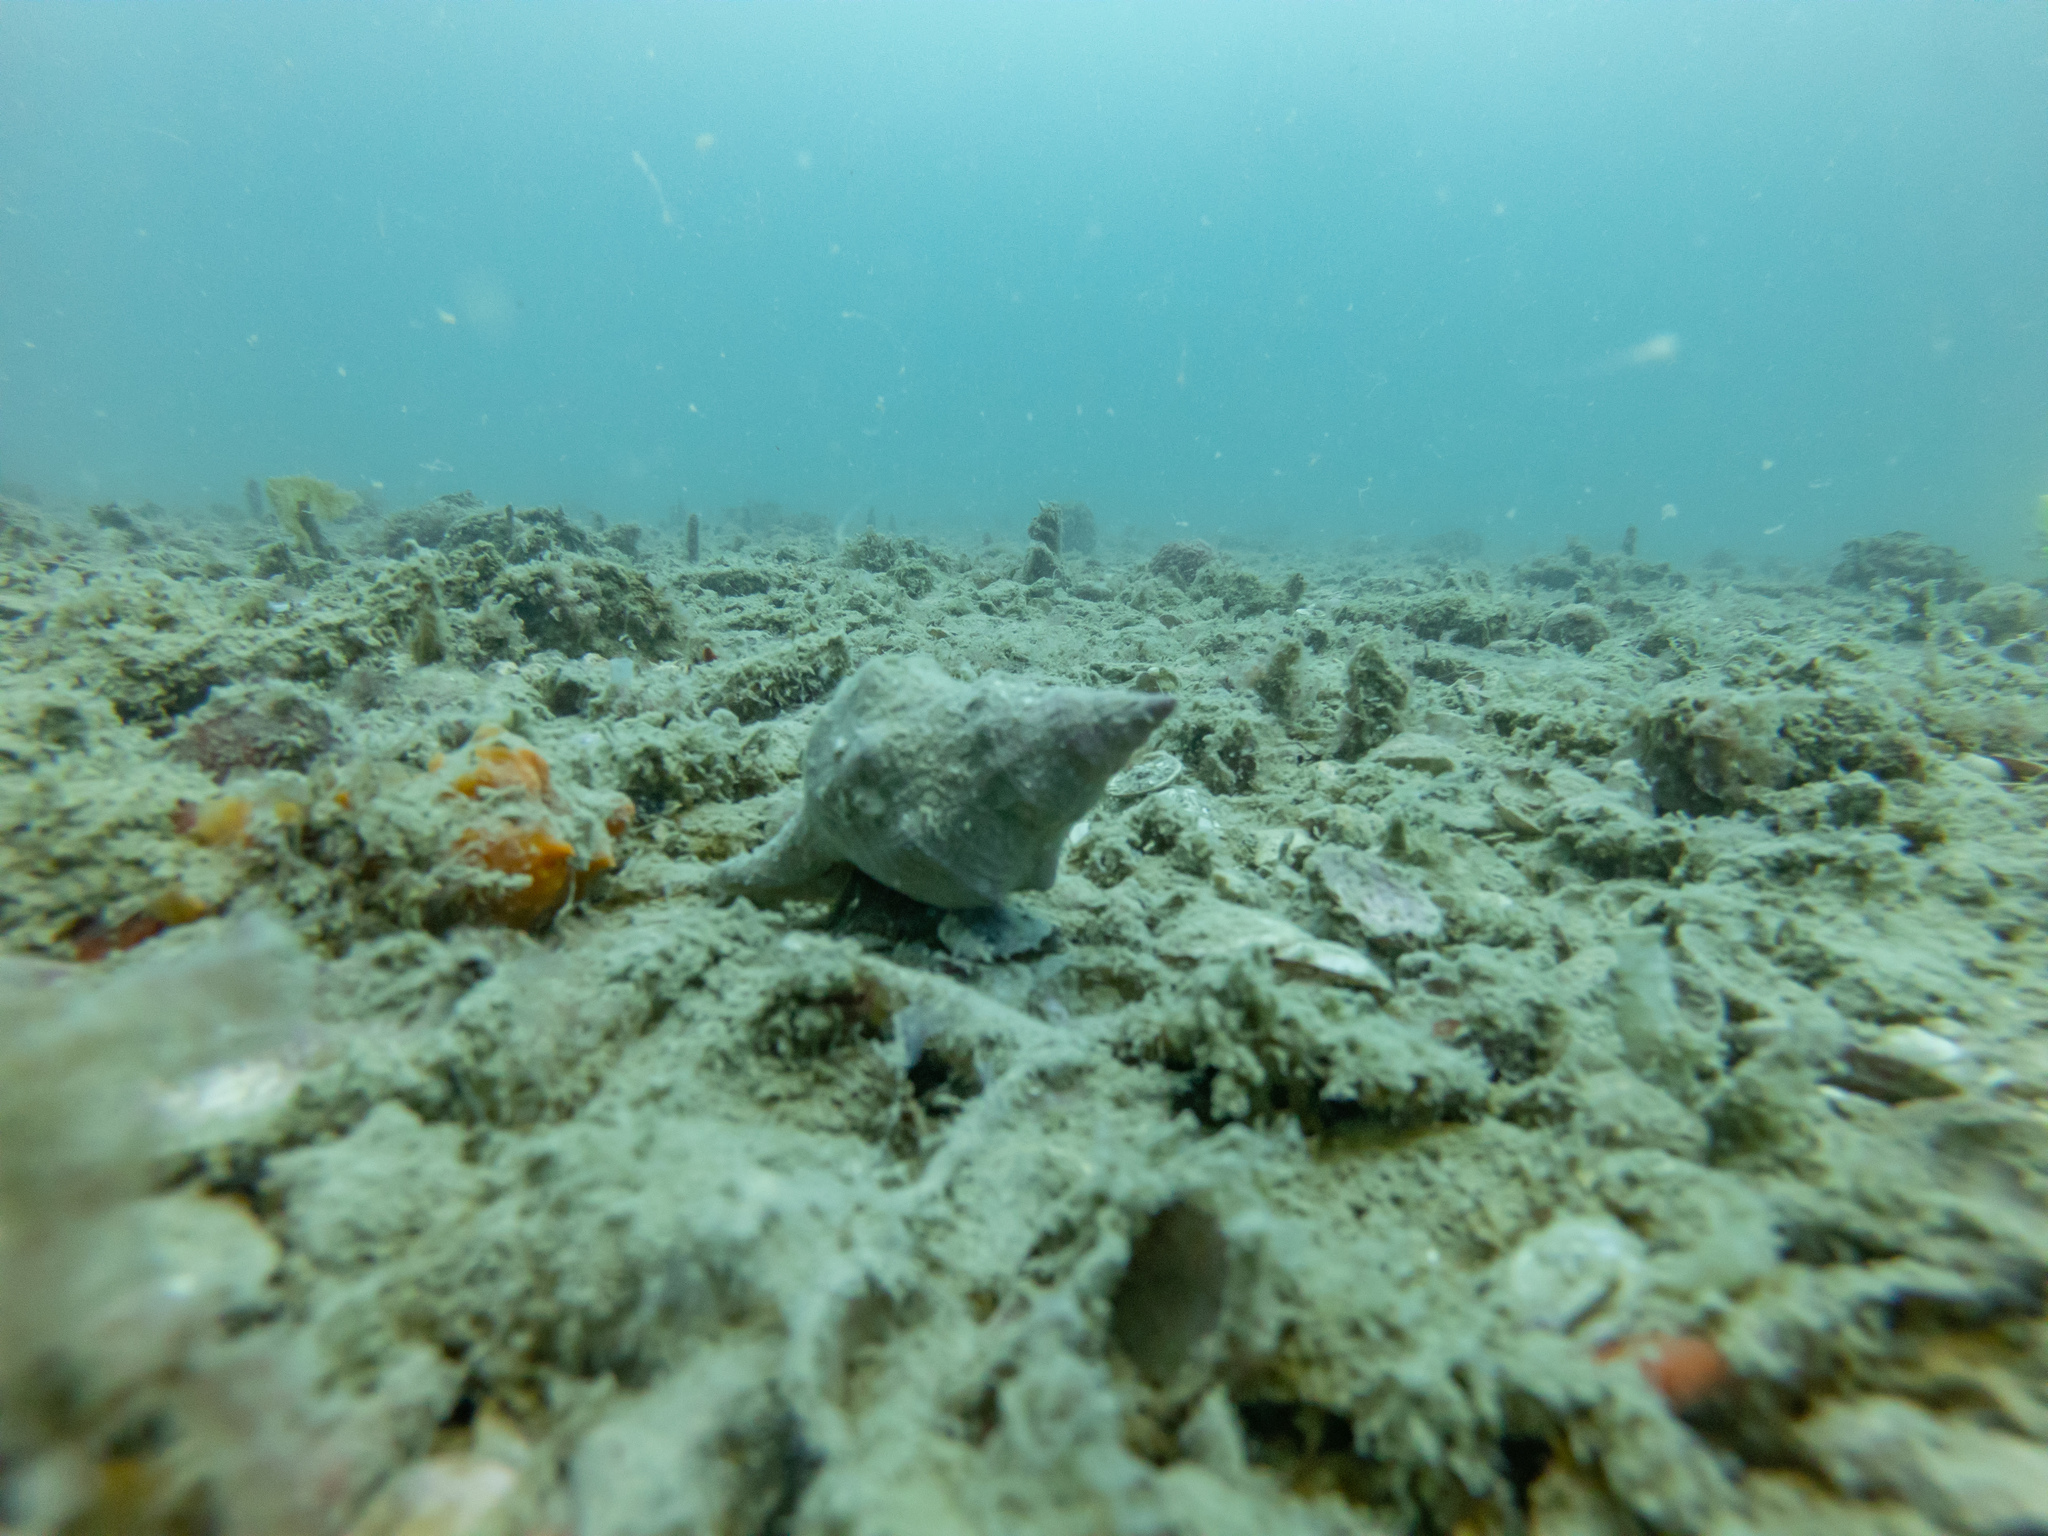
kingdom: Animalia
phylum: Mollusca
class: Gastropoda
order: Neogastropoda
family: Austrosiphonidae
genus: Penion
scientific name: Penion sulcatus
